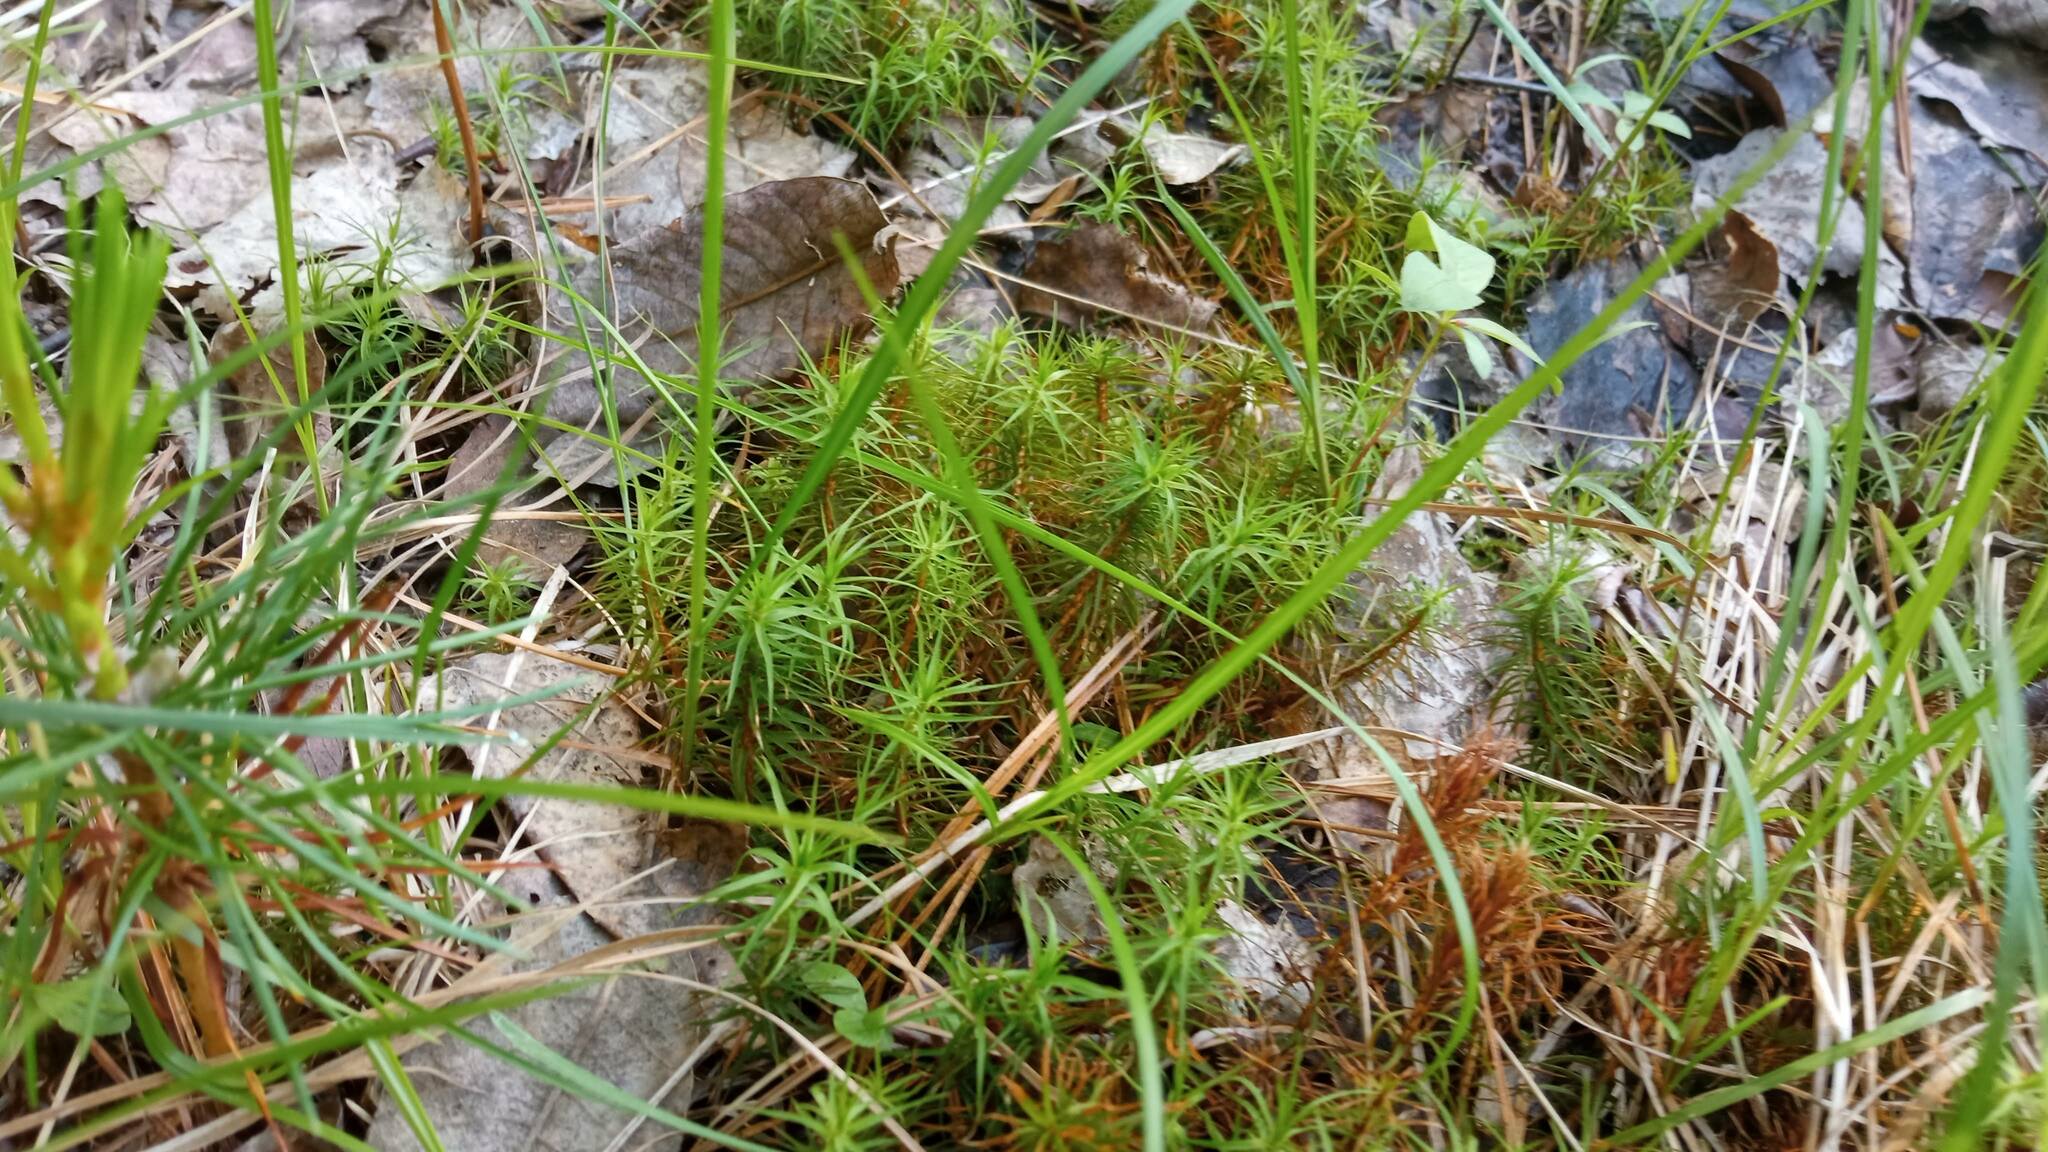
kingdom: Plantae
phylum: Bryophyta
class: Polytrichopsida
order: Polytrichales
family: Polytrichaceae
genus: Polytrichum
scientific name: Polytrichum commune
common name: Common haircap
